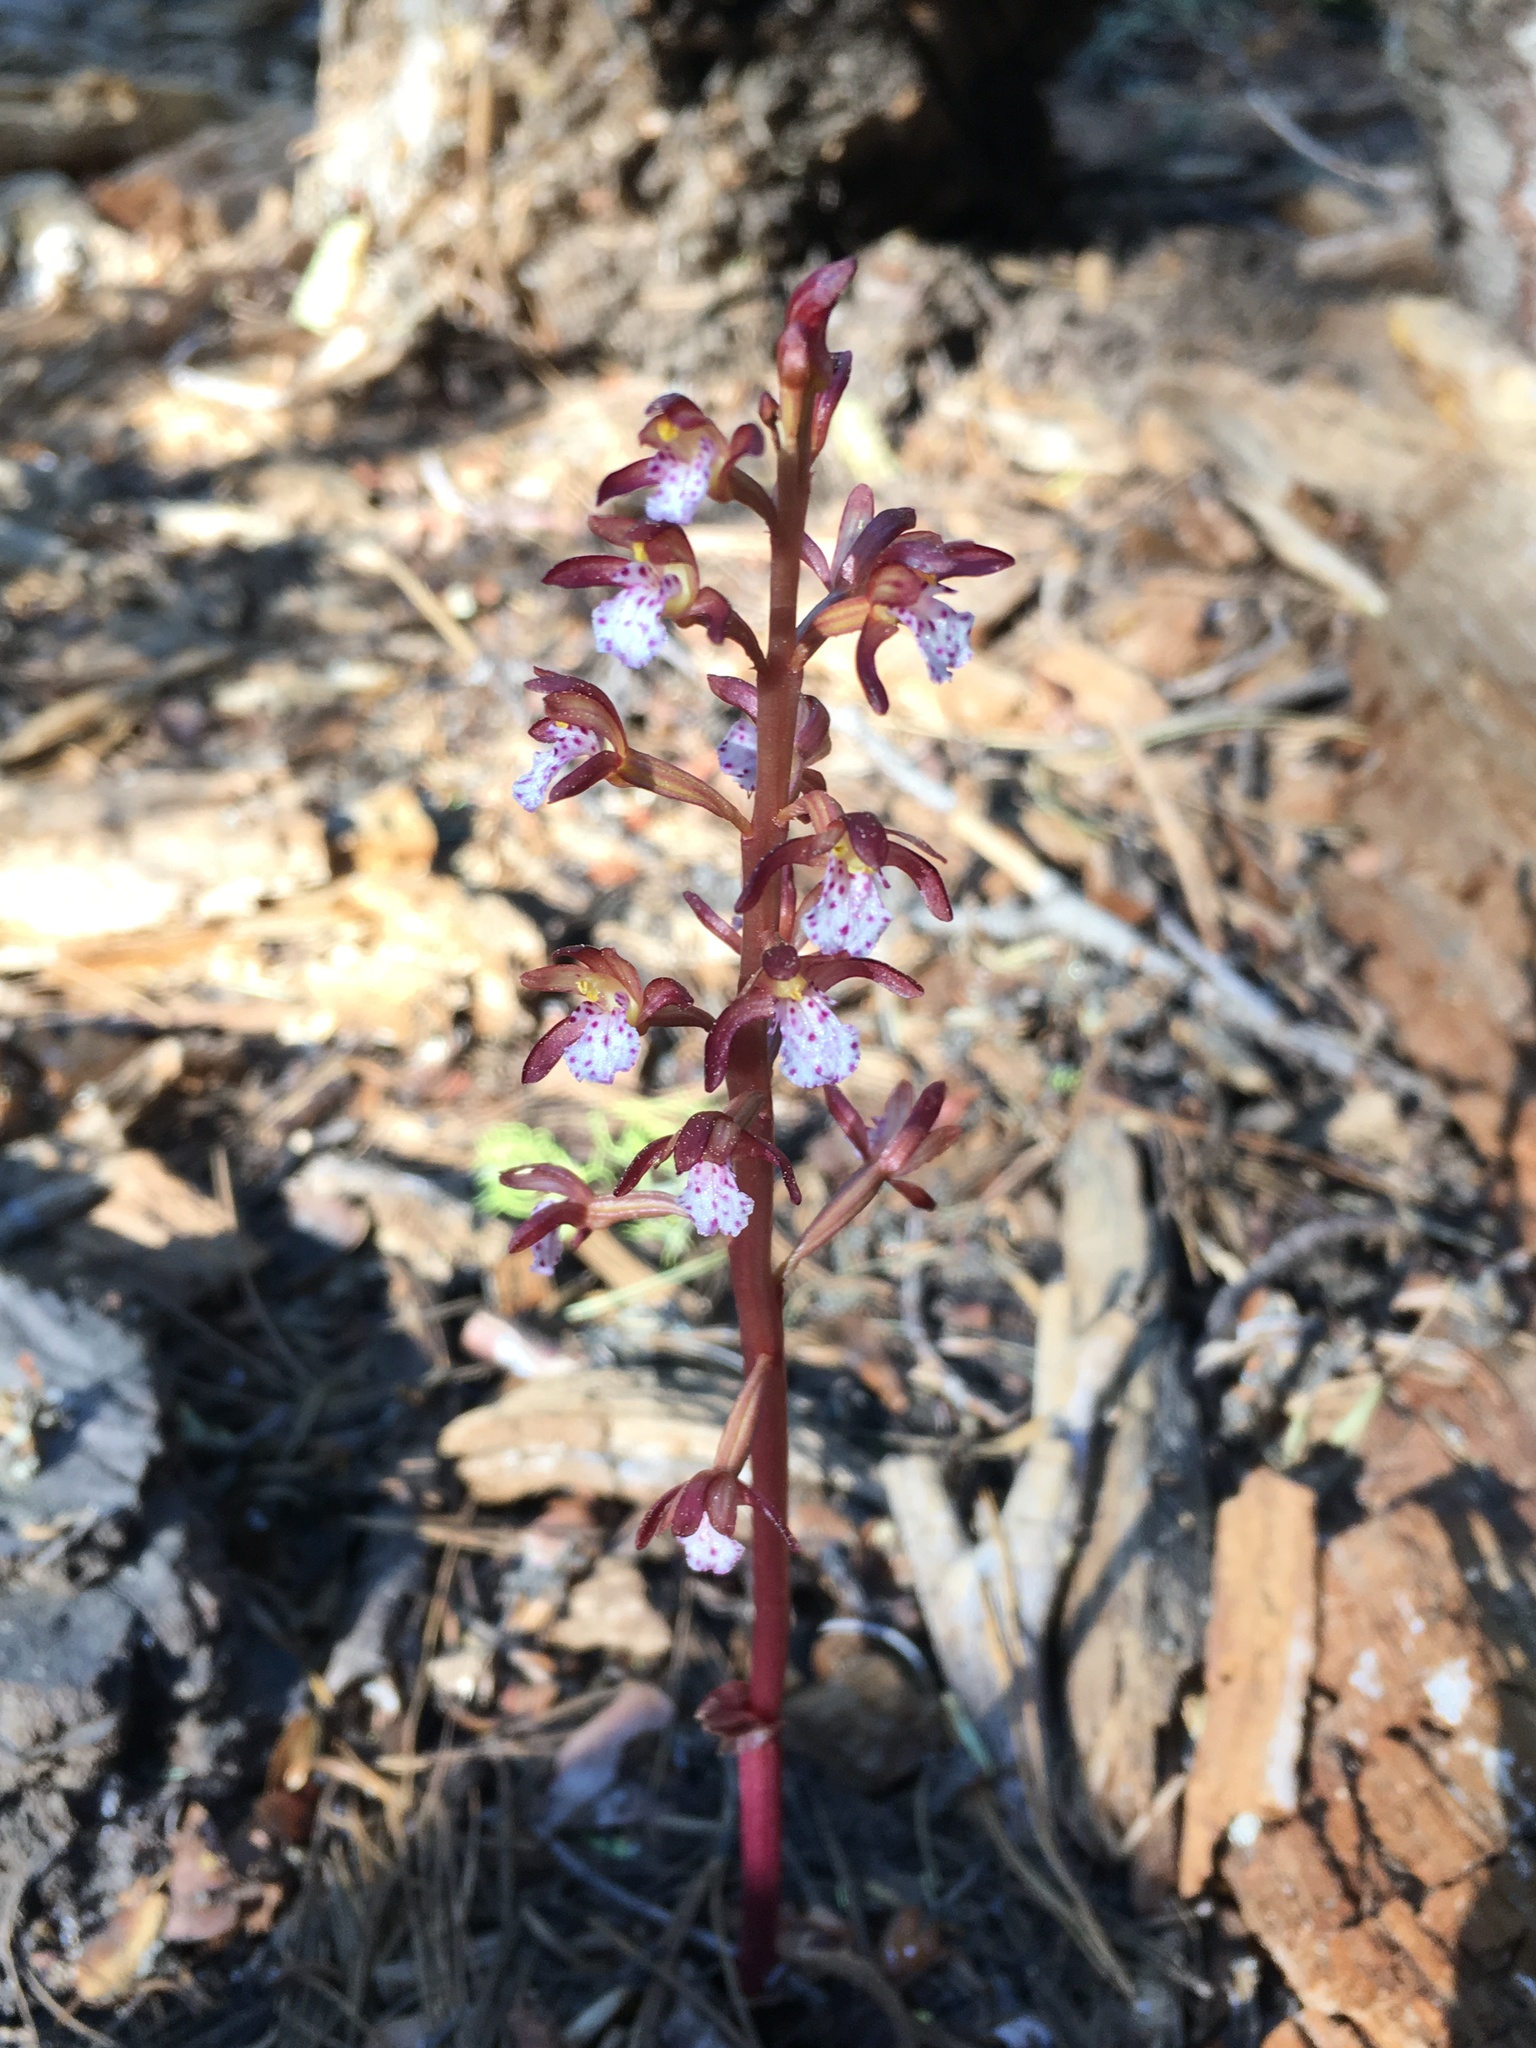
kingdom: Plantae
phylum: Tracheophyta
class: Liliopsida
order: Asparagales
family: Orchidaceae
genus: Corallorhiza
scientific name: Corallorhiza maculata
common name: Spotted coralroot
